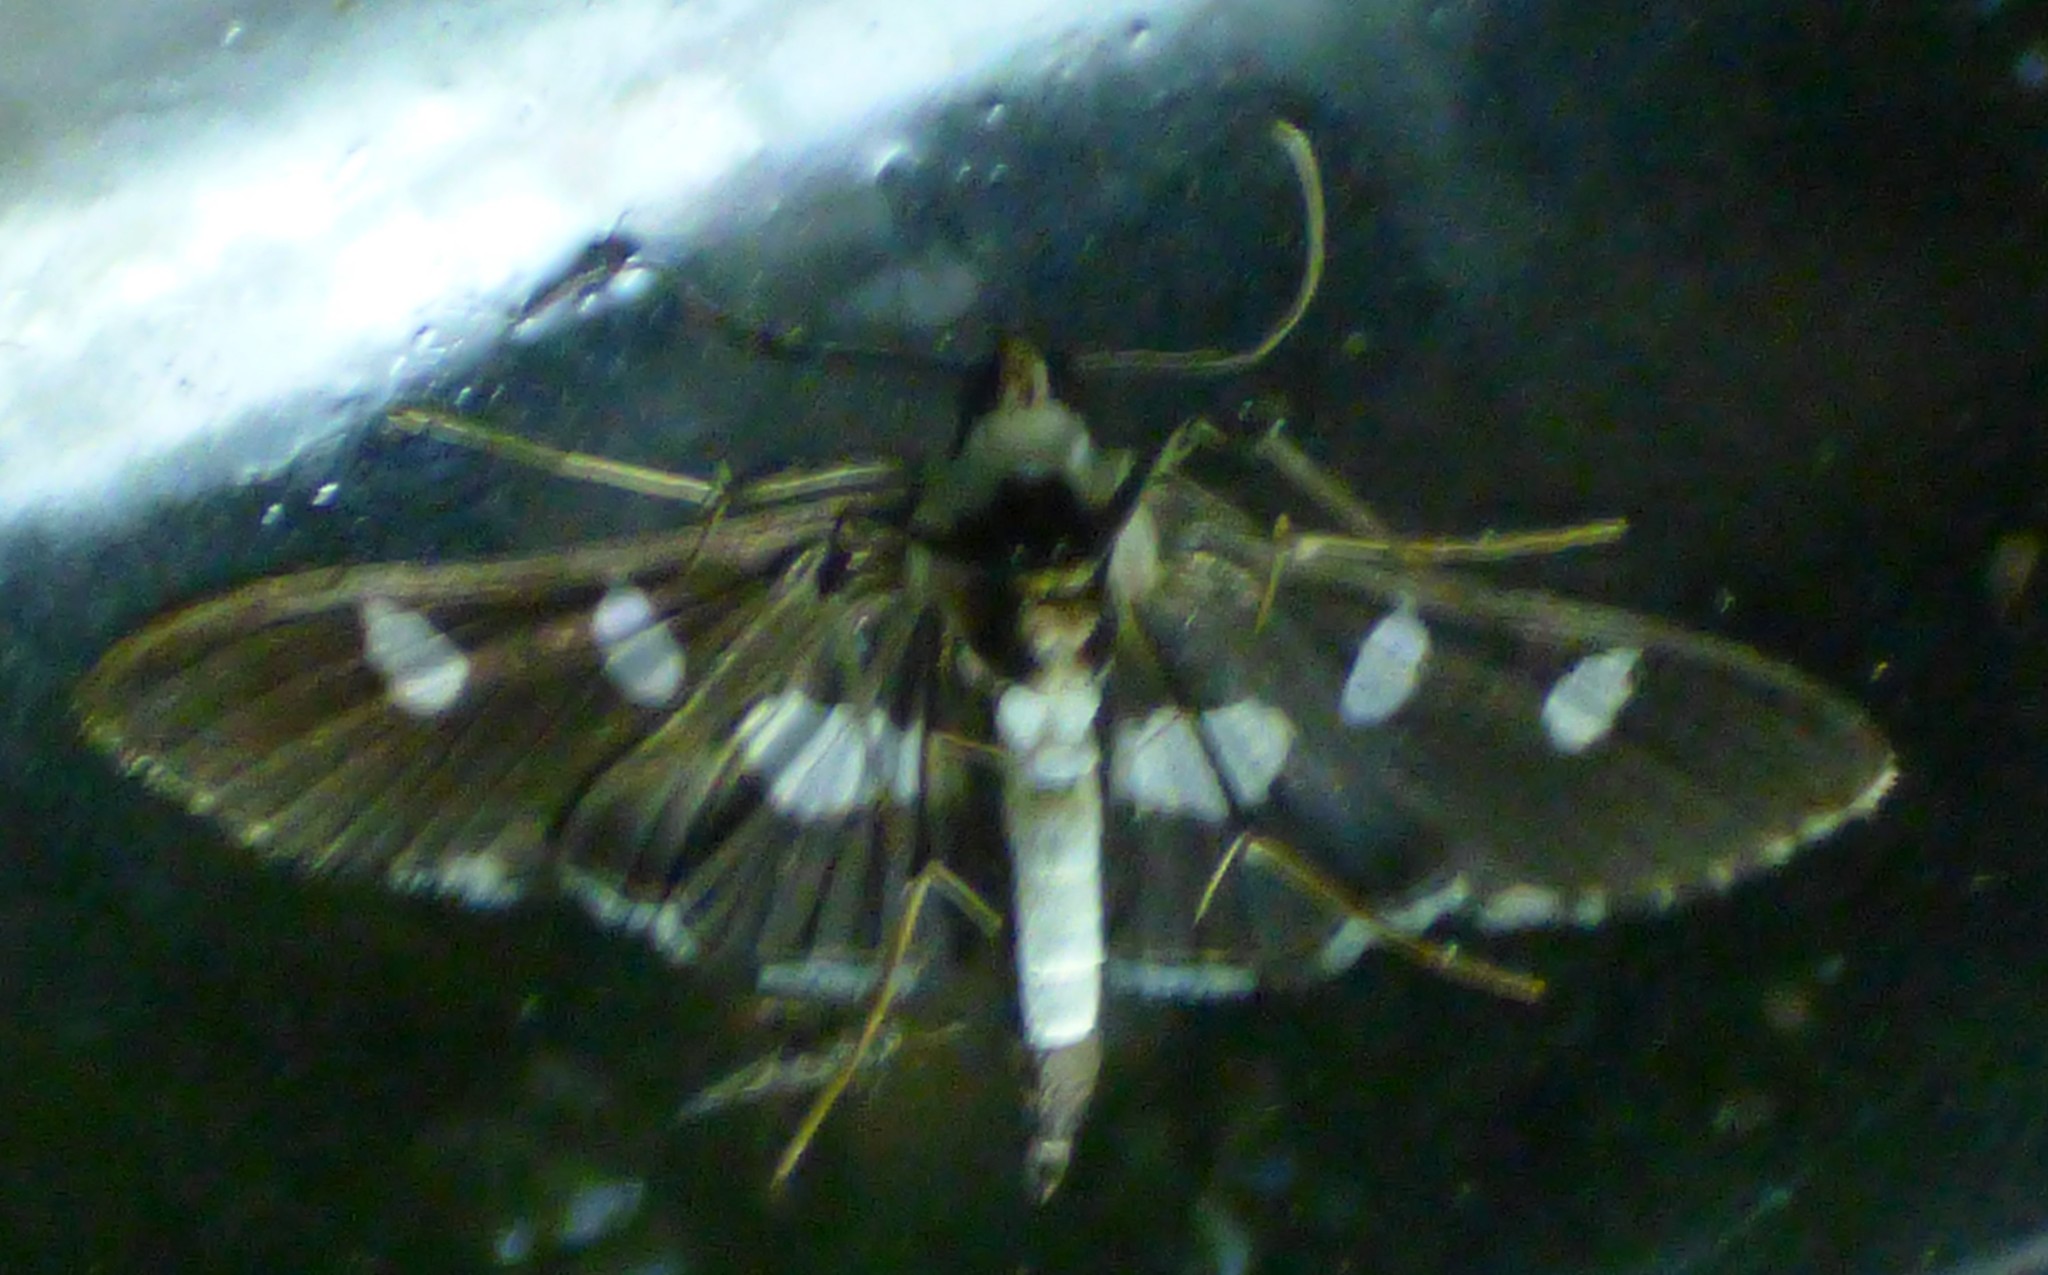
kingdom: Animalia
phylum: Arthropoda
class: Insecta
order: Lepidoptera
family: Crambidae
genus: Desmia
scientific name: Desmia funeralis
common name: Grape leaf folder moth
